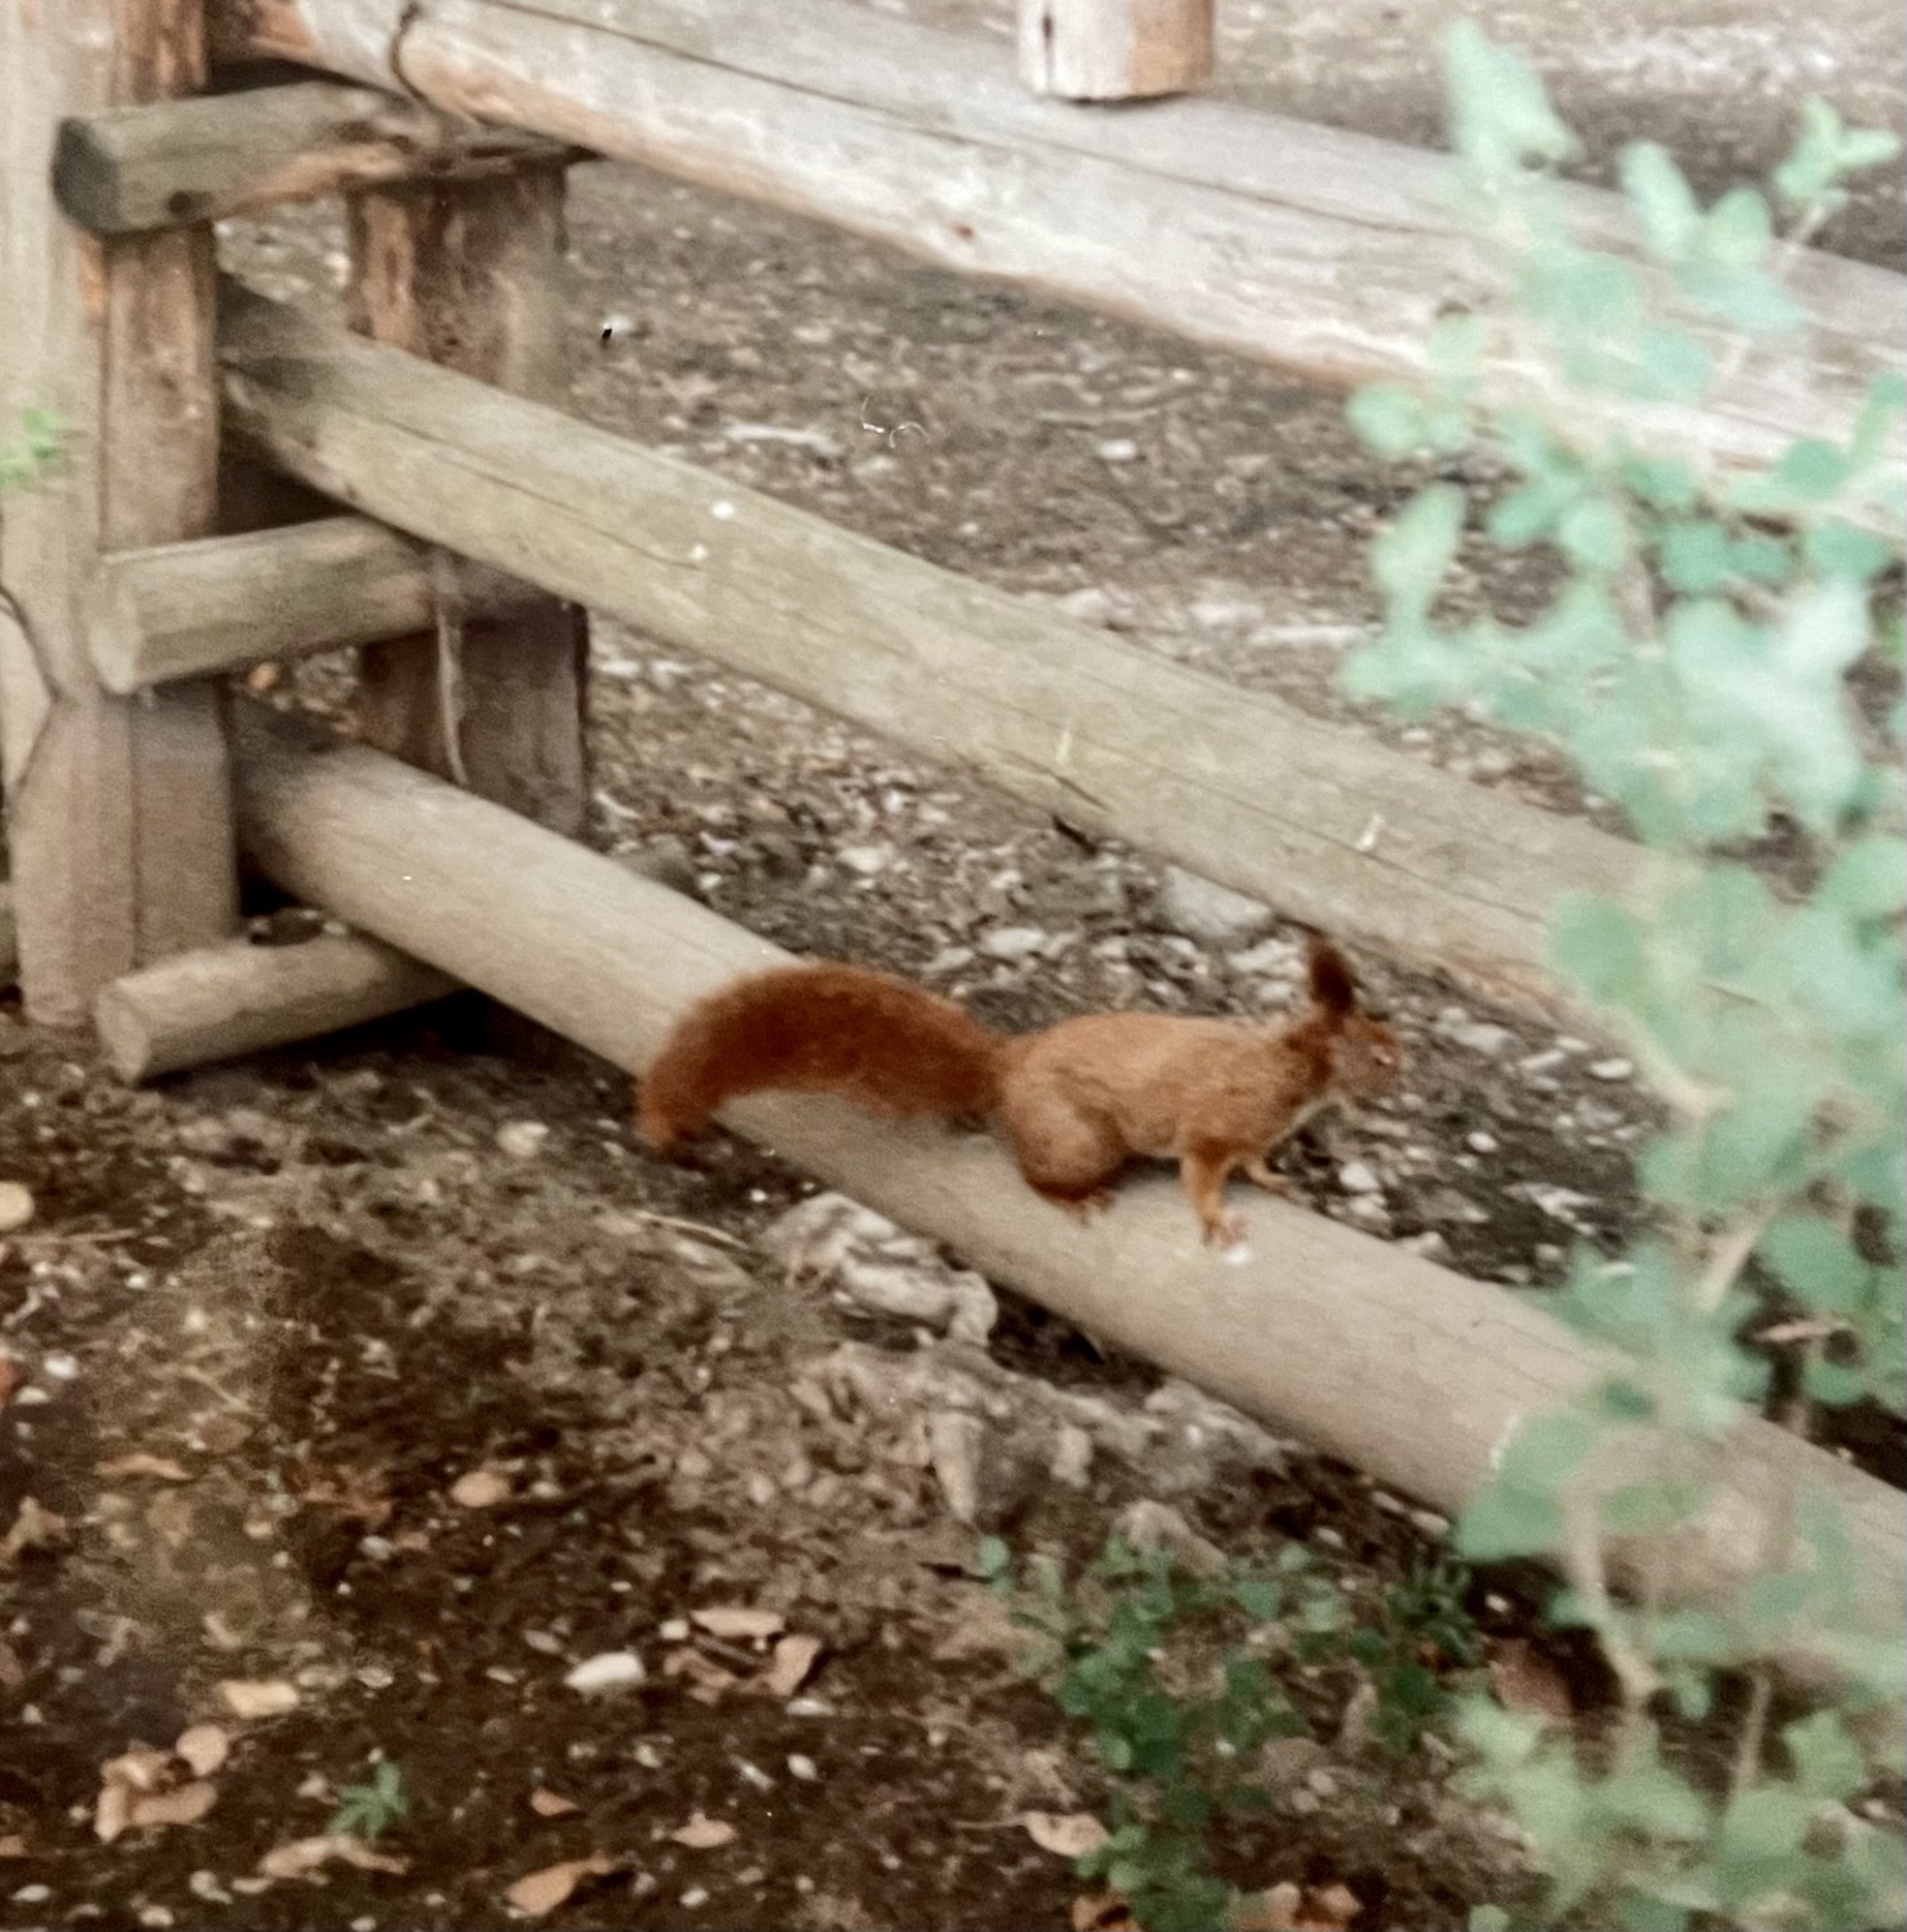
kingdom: Animalia
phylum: Chordata
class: Mammalia
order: Rodentia
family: Sciuridae
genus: Sciurus
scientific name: Sciurus vulgaris
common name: Eurasian red squirrel
